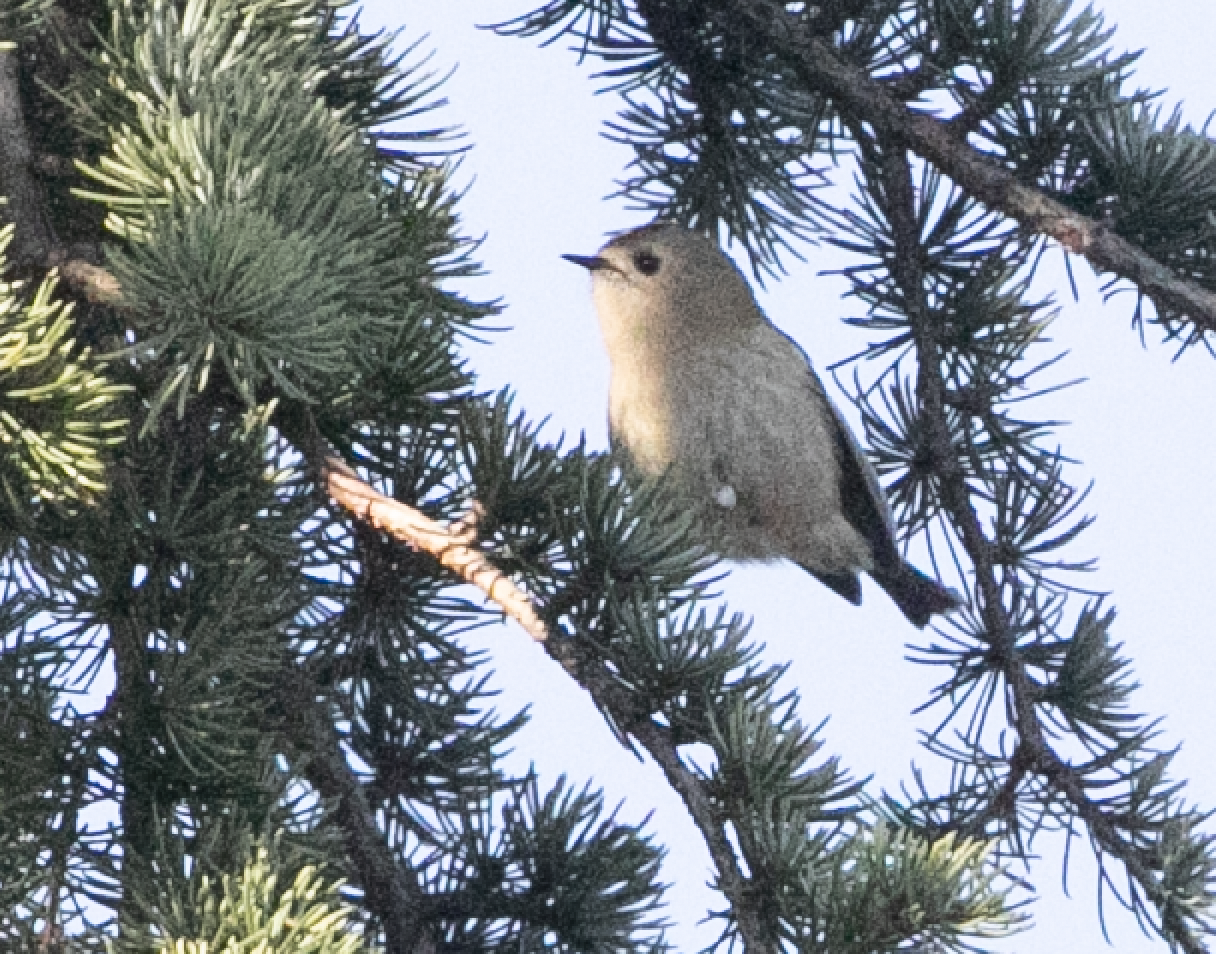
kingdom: Animalia
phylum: Chordata
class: Aves
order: Passeriformes
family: Regulidae
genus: Regulus
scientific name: Regulus regulus
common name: Goldcrest
